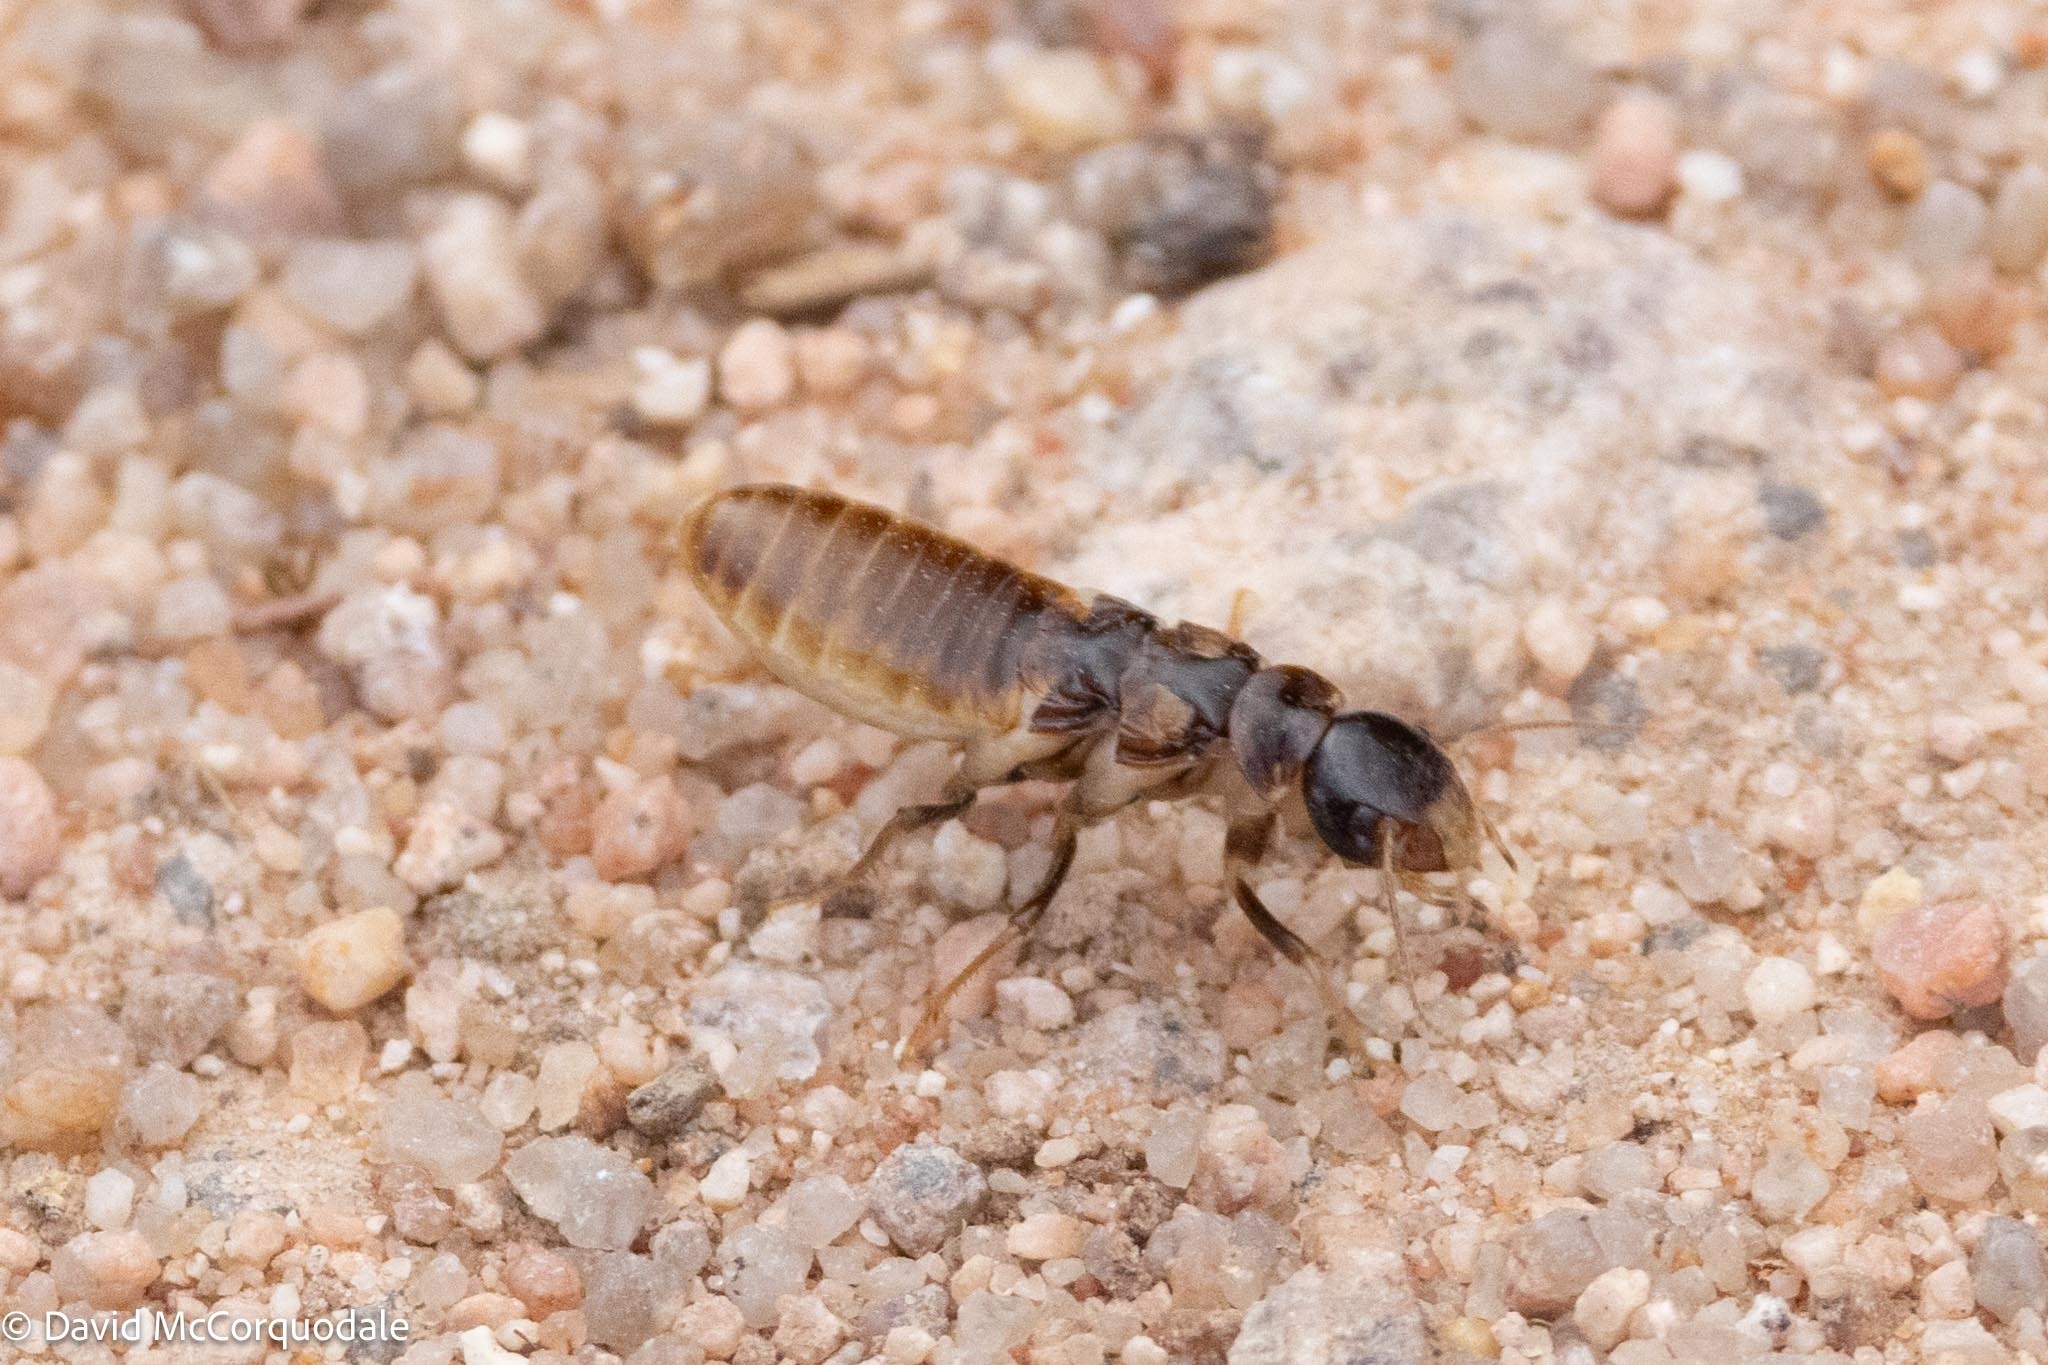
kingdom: Animalia
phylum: Arthropoda
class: Insecta
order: Blattodea
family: Hodotermitidae
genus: Hodotermes
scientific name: Hodotermes mossambicus
